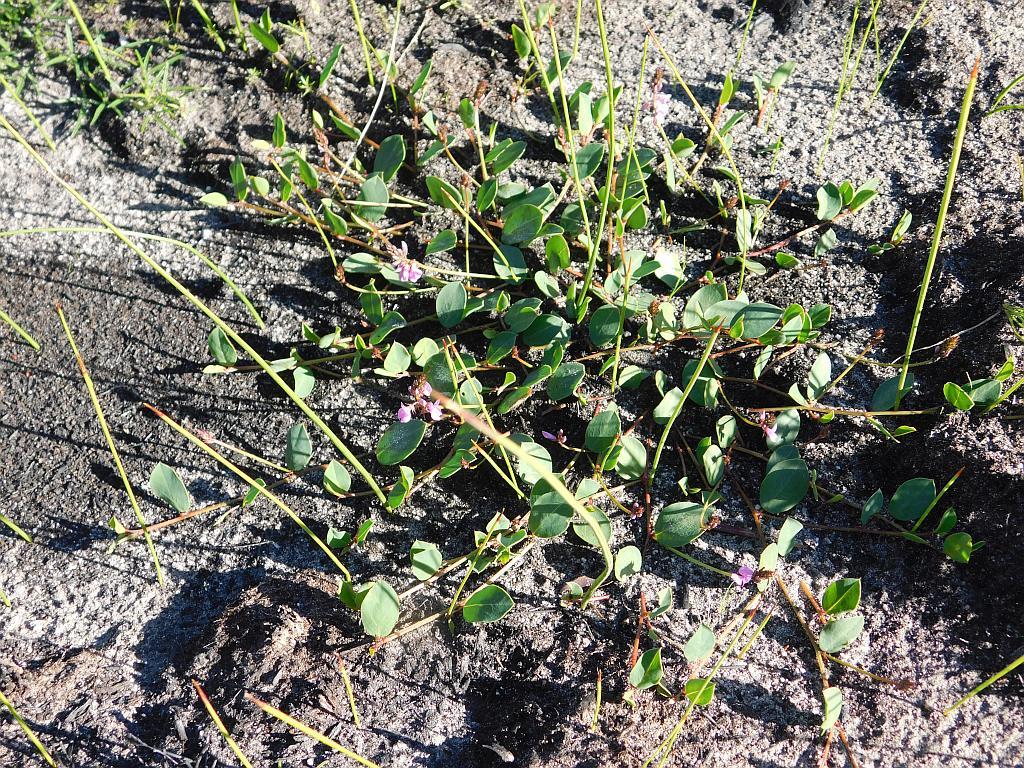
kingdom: Plantae
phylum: Tracheophyta
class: Magnoliopsida
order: Fabales
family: Fabaceae
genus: Indigofera
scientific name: Indigofera ovata
